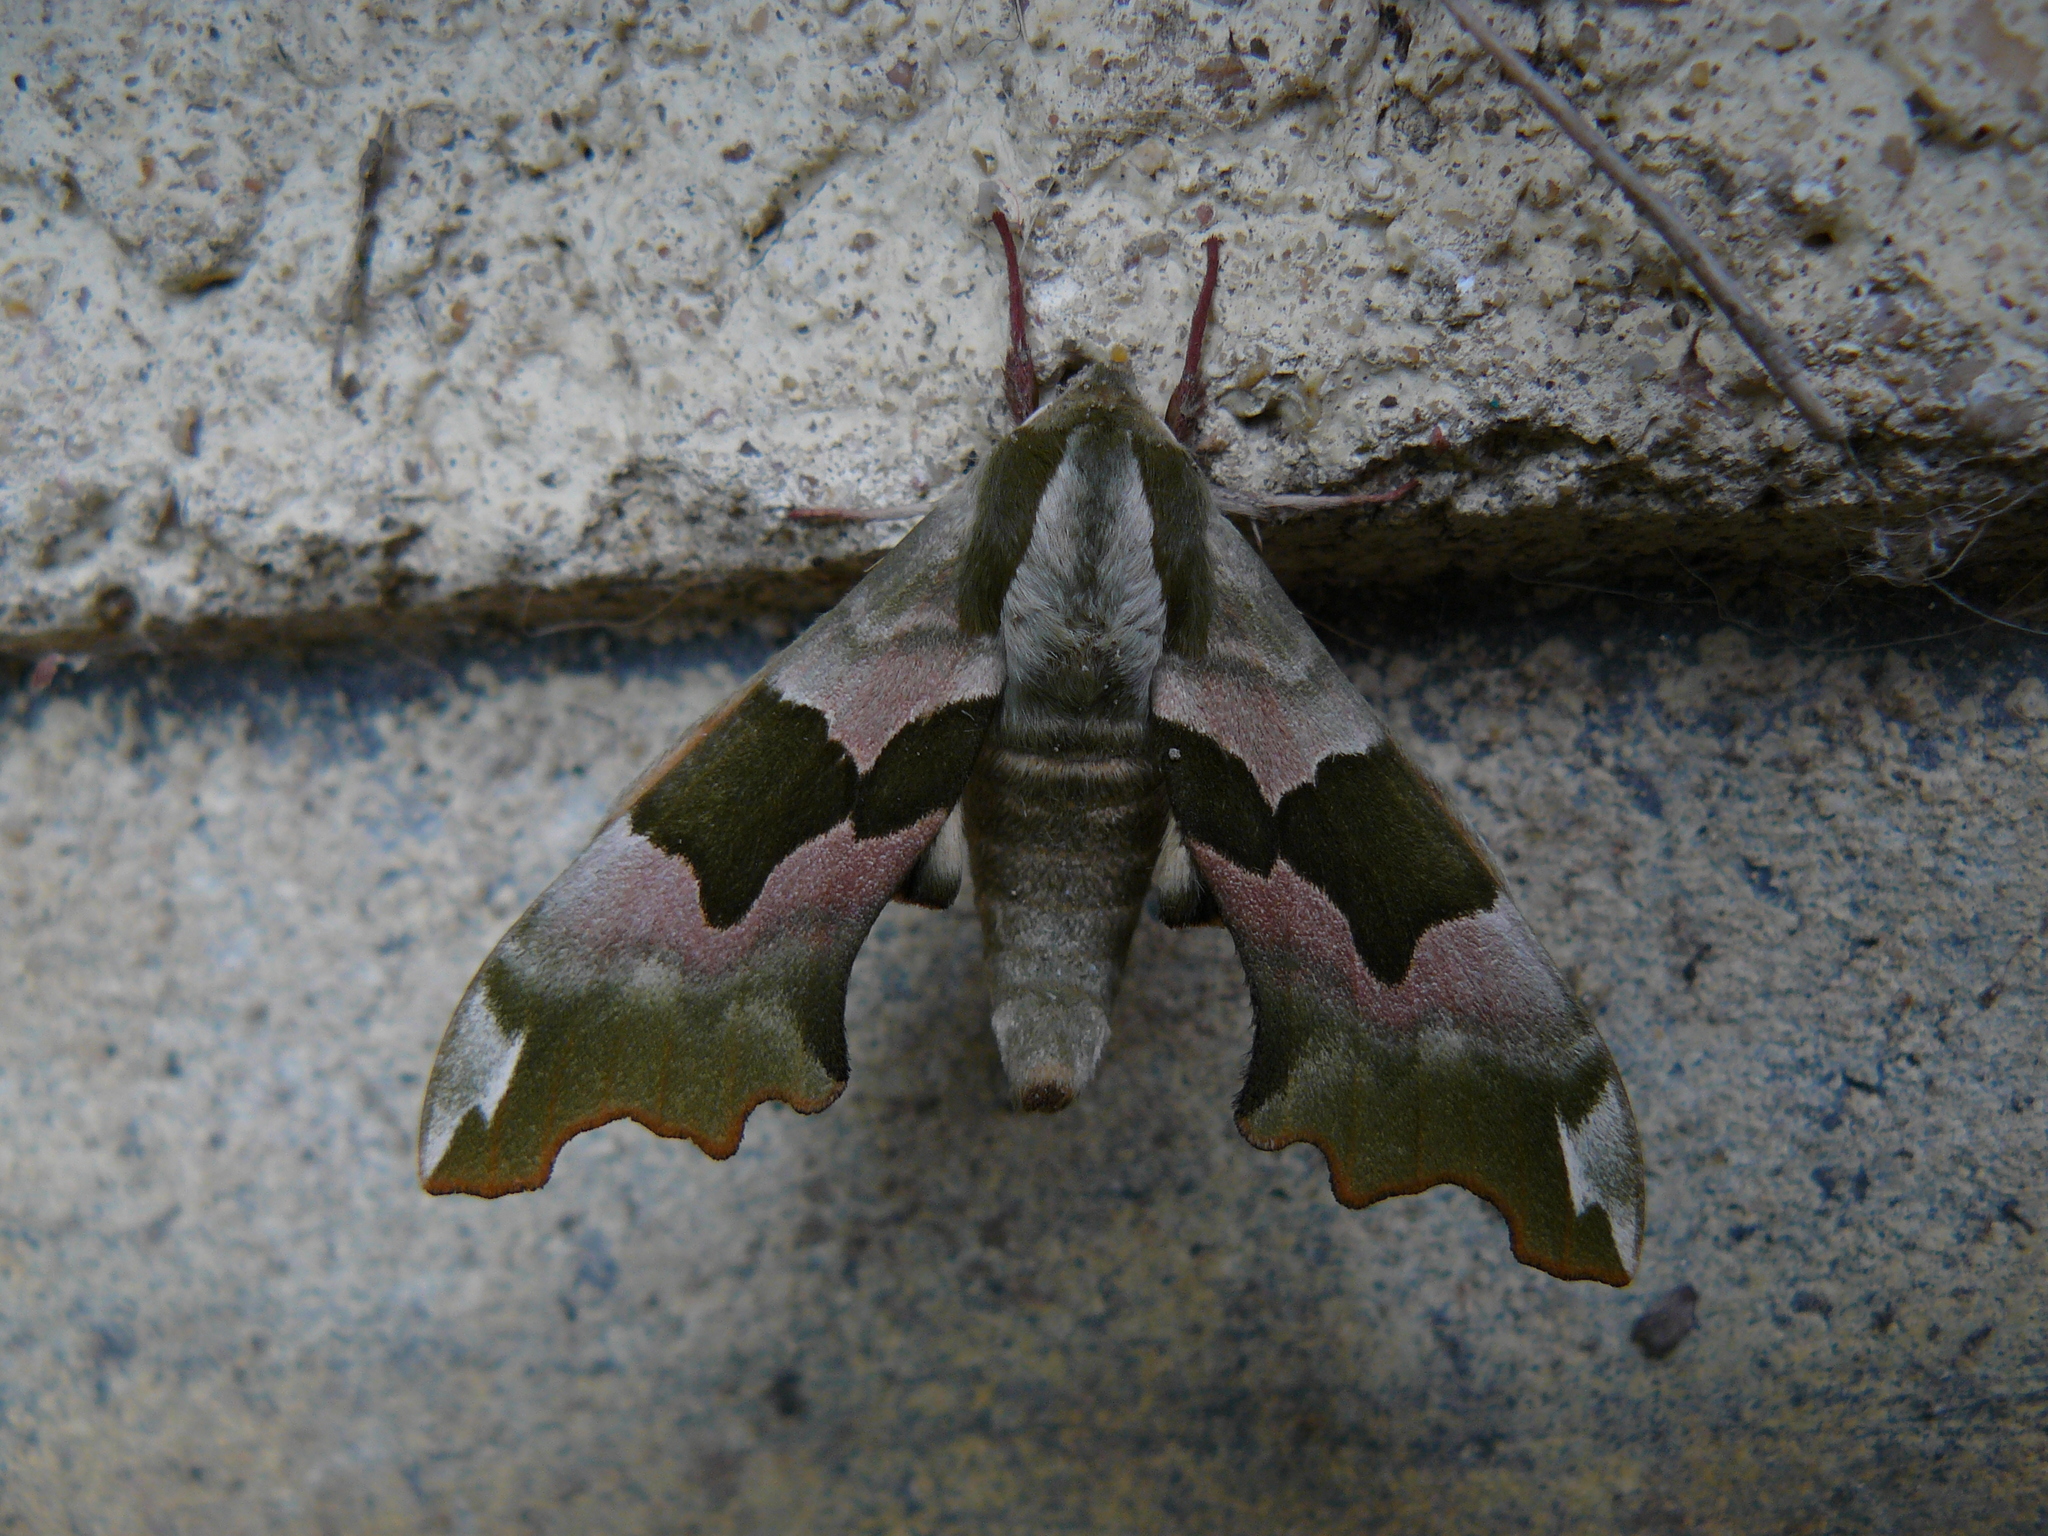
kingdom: Animalia
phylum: Arthropoda
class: Insecta
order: Lepidoptera
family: Sphingidae
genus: Mimas
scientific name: Mimas tiliae
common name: Lime hawk-moth
